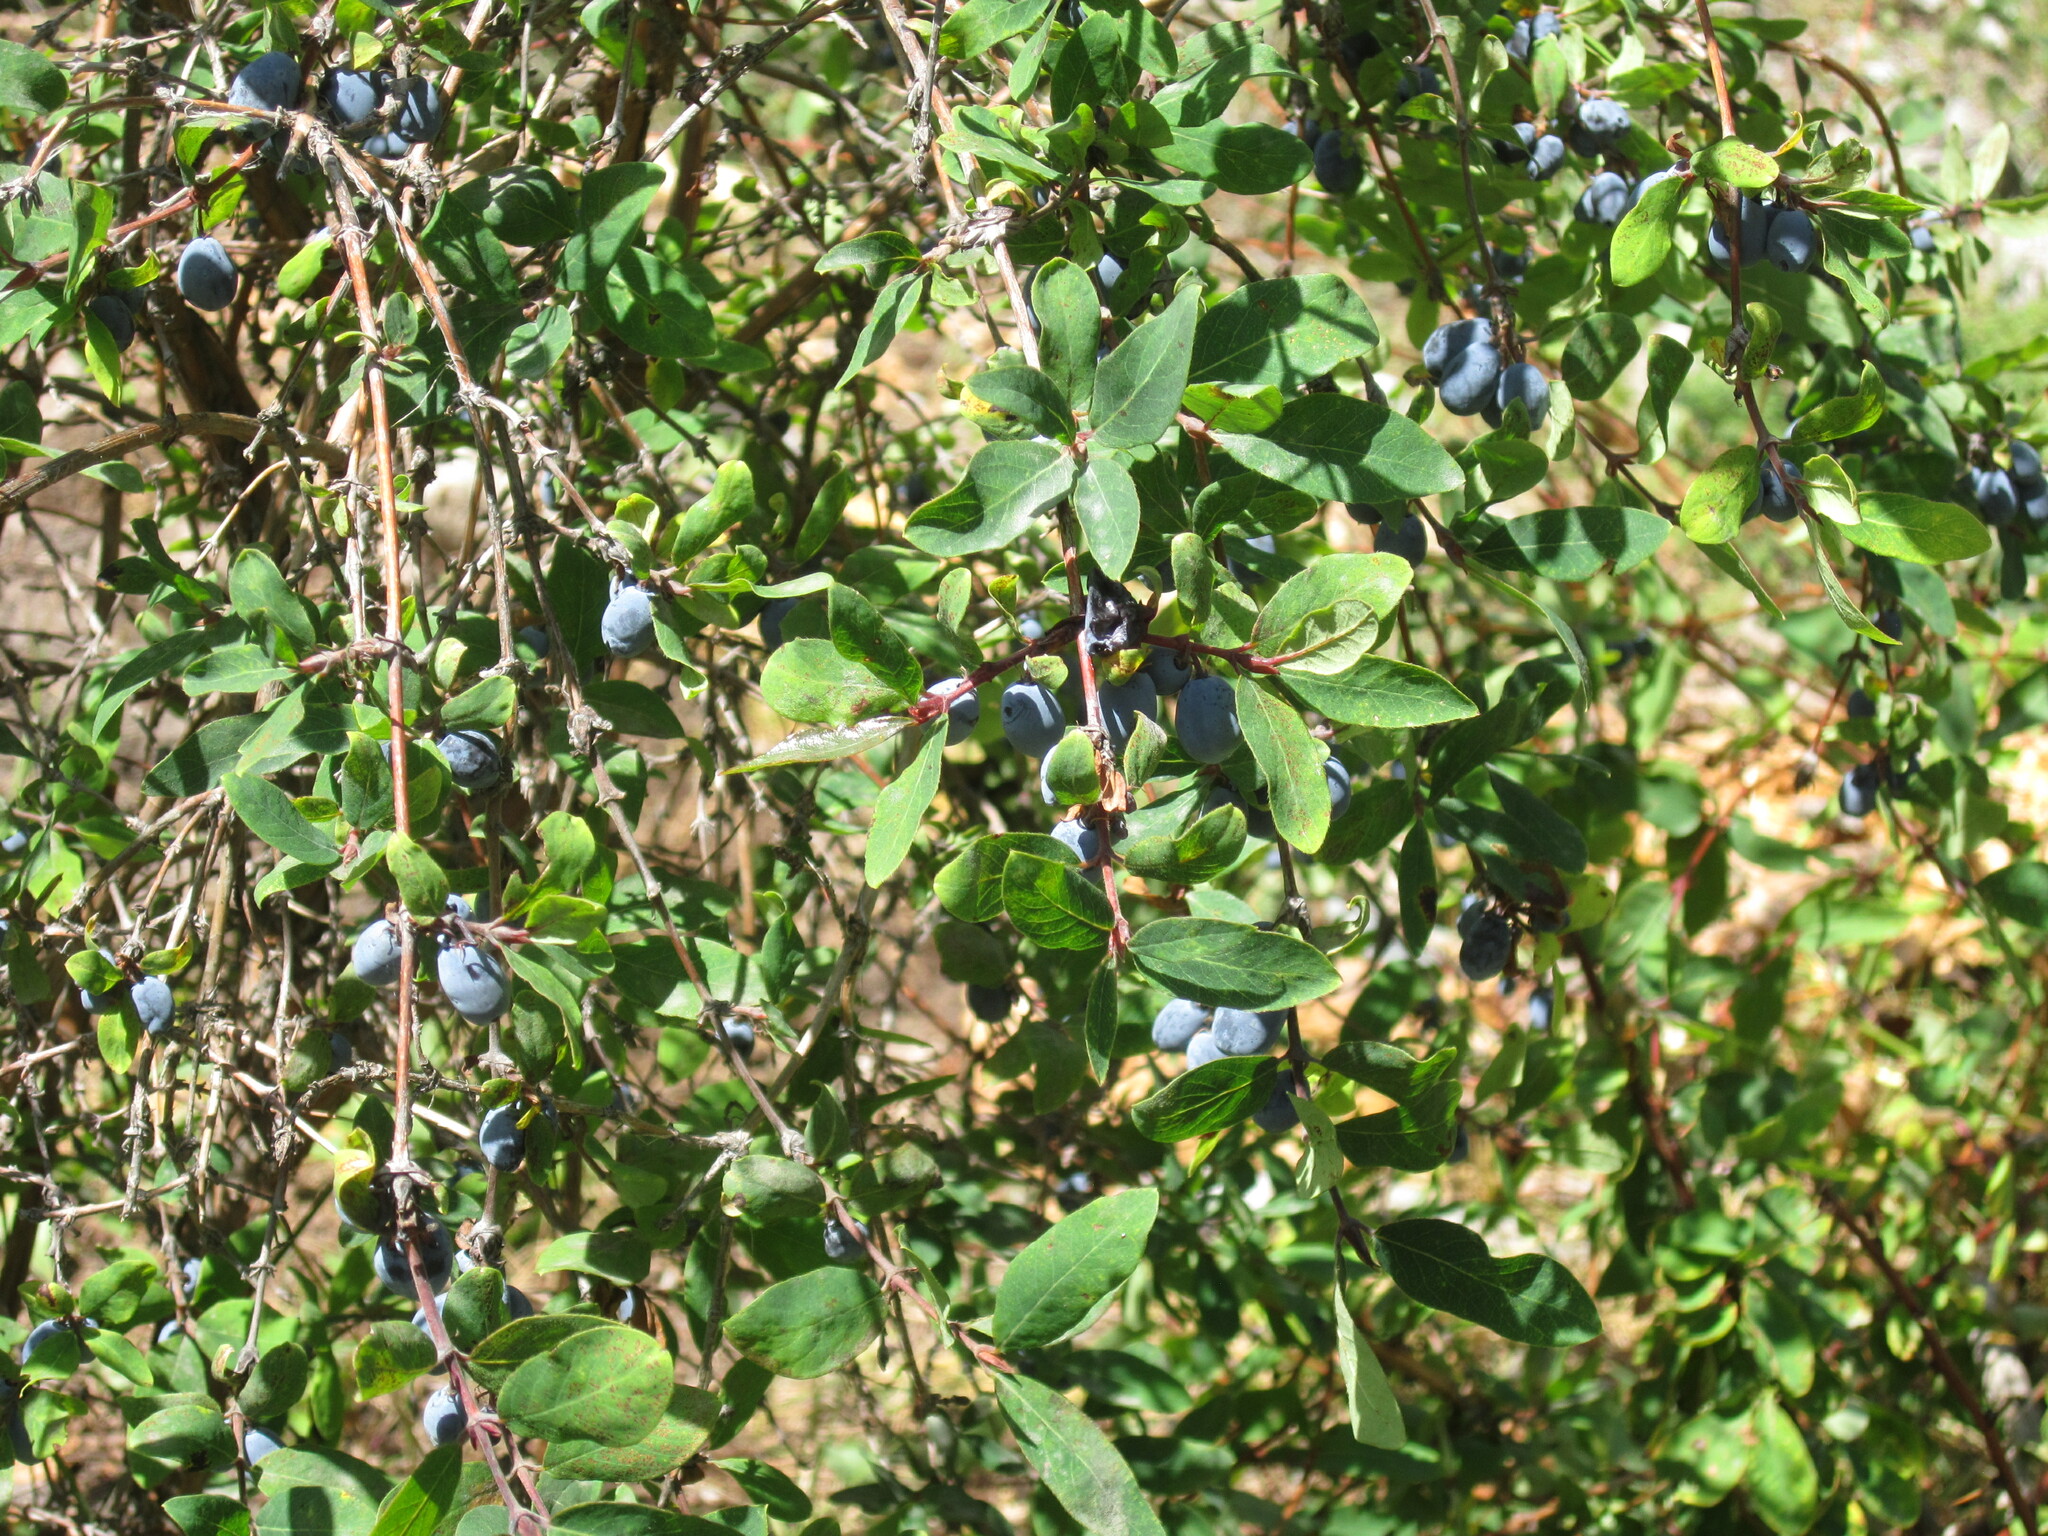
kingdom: Plantae
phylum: Tracheophyta
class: Magnoliopsida
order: Dipsacales
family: Caprifoliaceae
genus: Lonicera
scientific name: Lonicera stenantha
